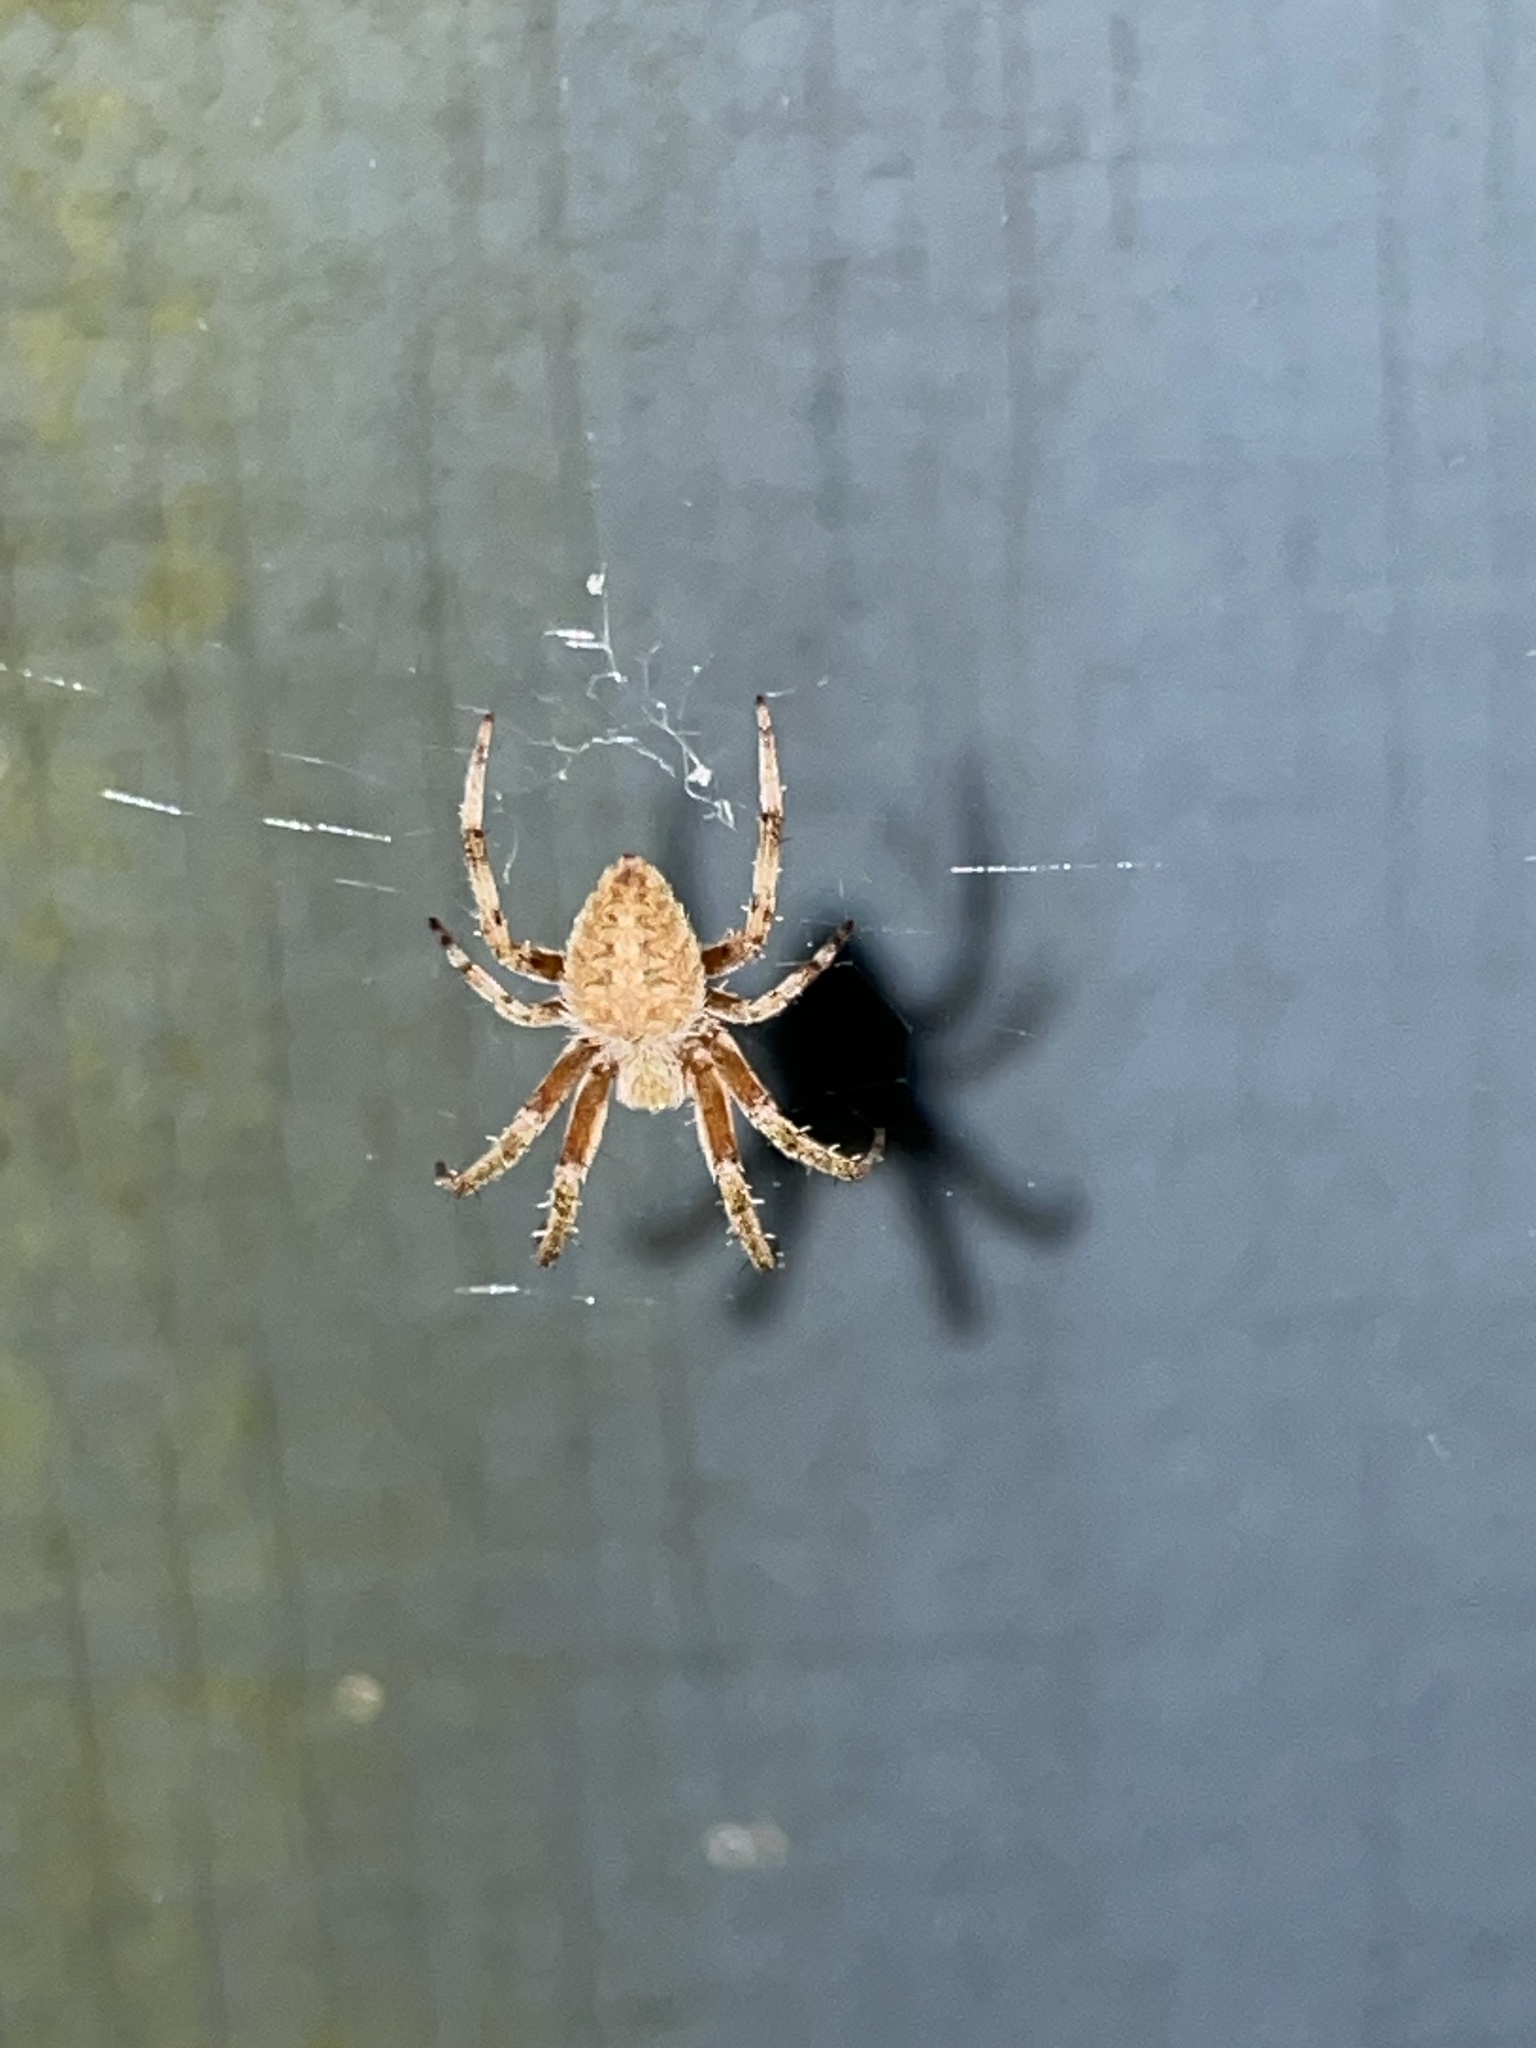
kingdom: Animalia
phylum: Arthropoda
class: Arachnida
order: Araneae
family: Araneidae
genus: Neoscona
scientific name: Neoscona crucifera
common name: Spotted orbweaver
